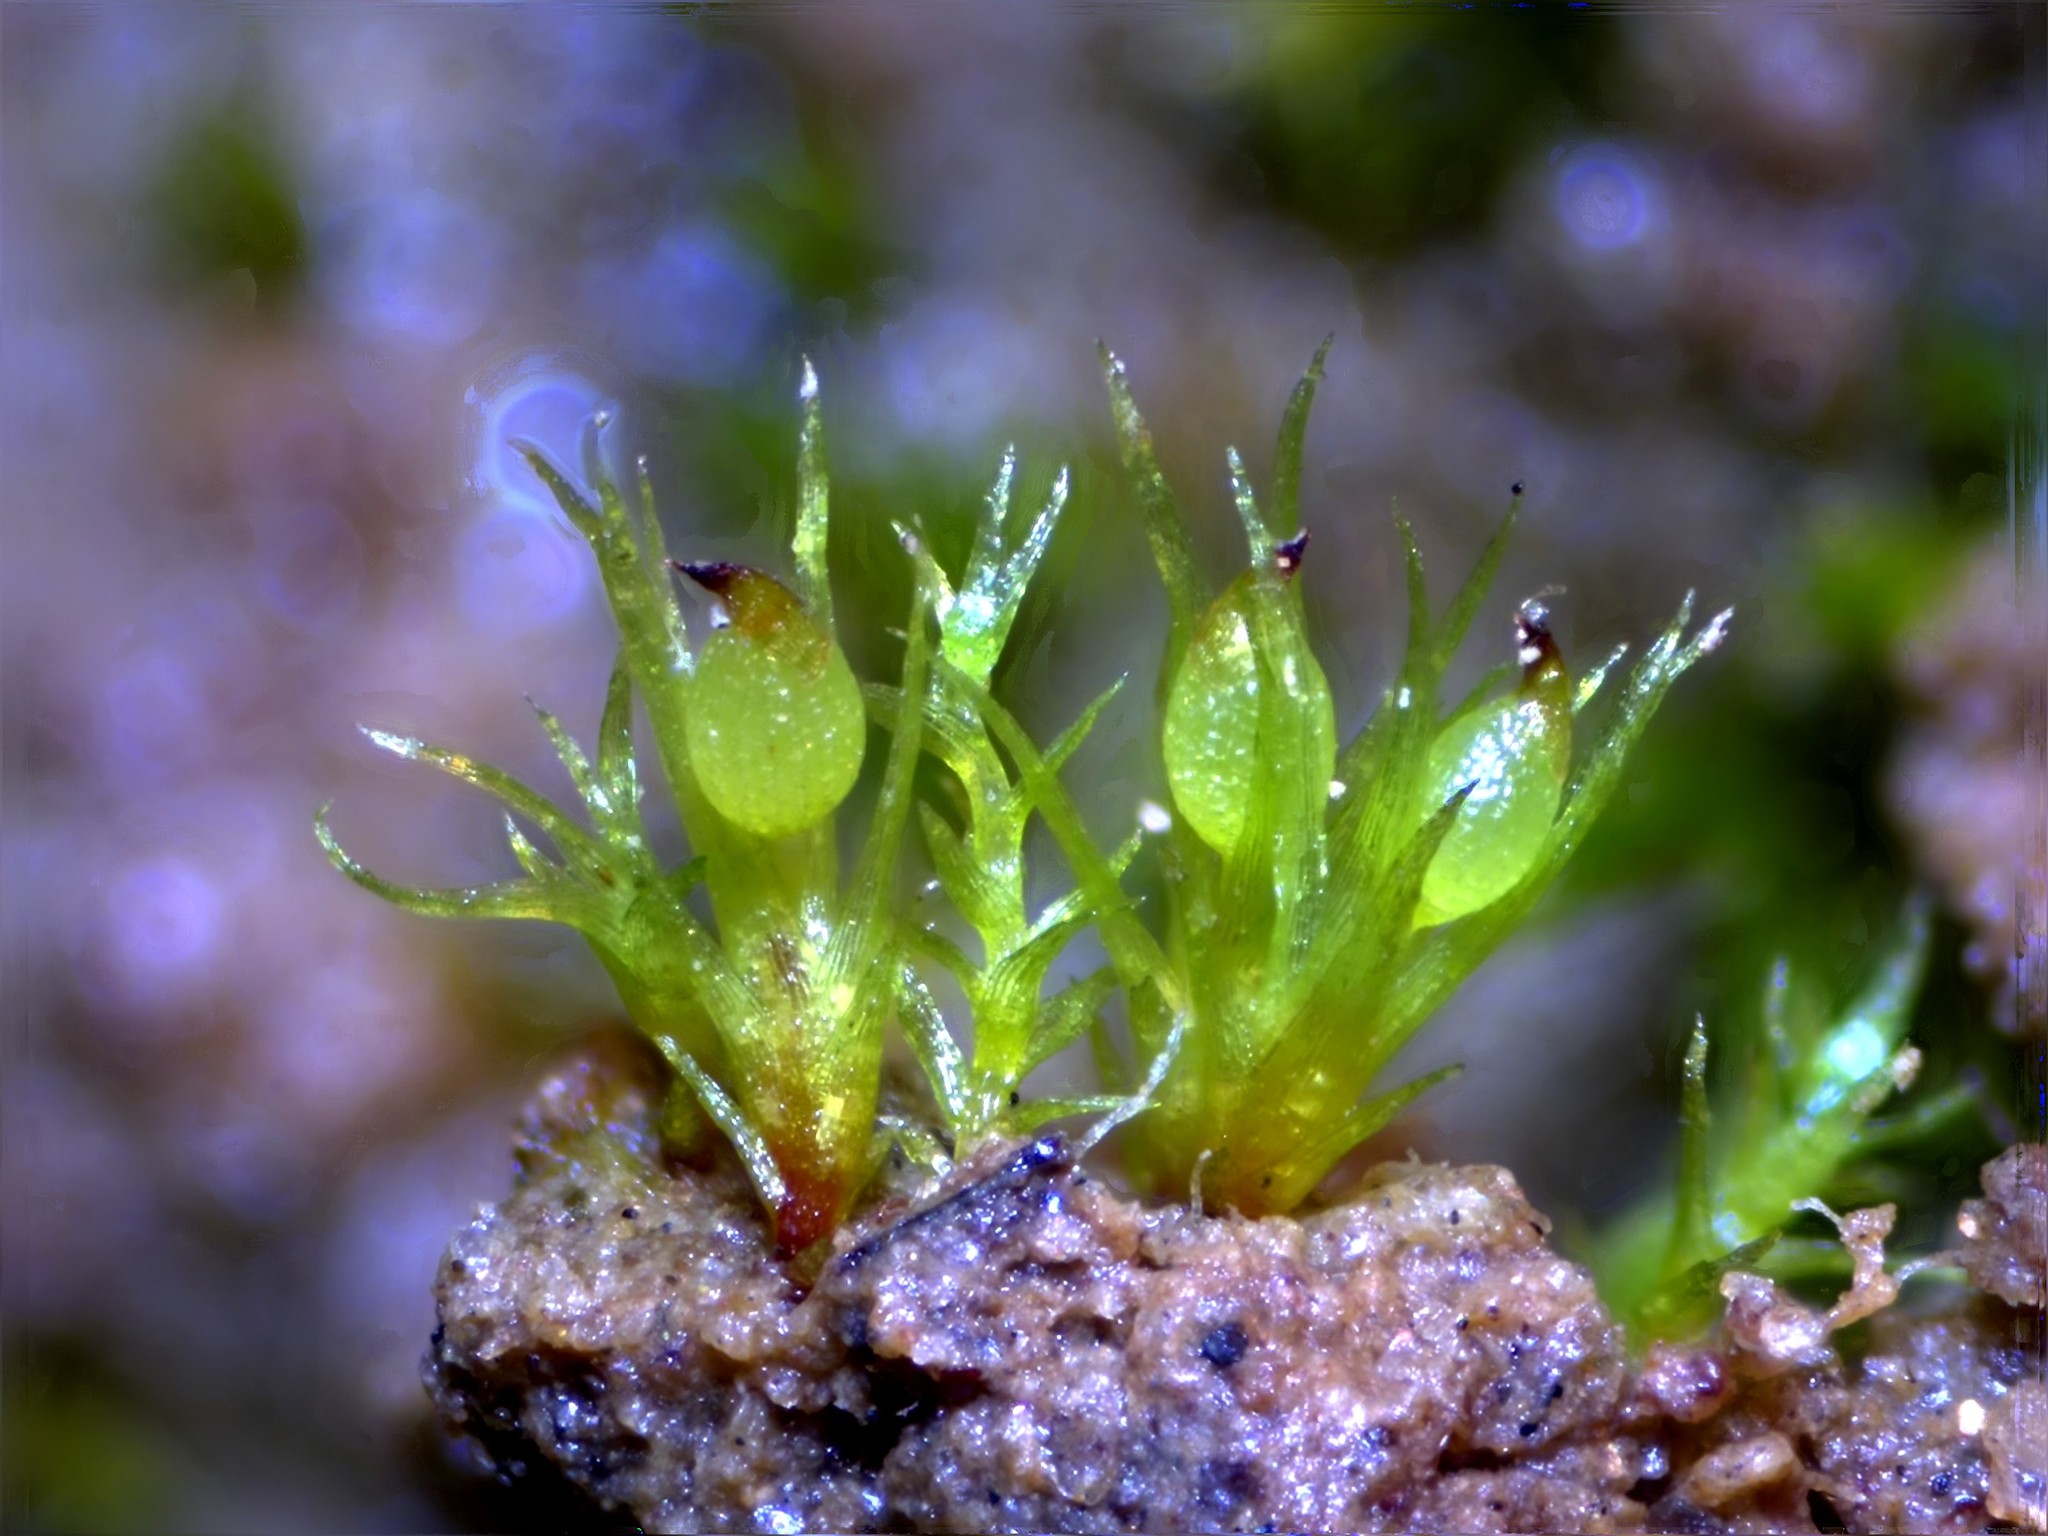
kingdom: Plantae
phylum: Bryophyta
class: Bryopsida
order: Dicranales
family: Ditrichaceae
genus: Pseudephemerum
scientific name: Pseudephemerum nitidum
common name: Delicate earth-moss
